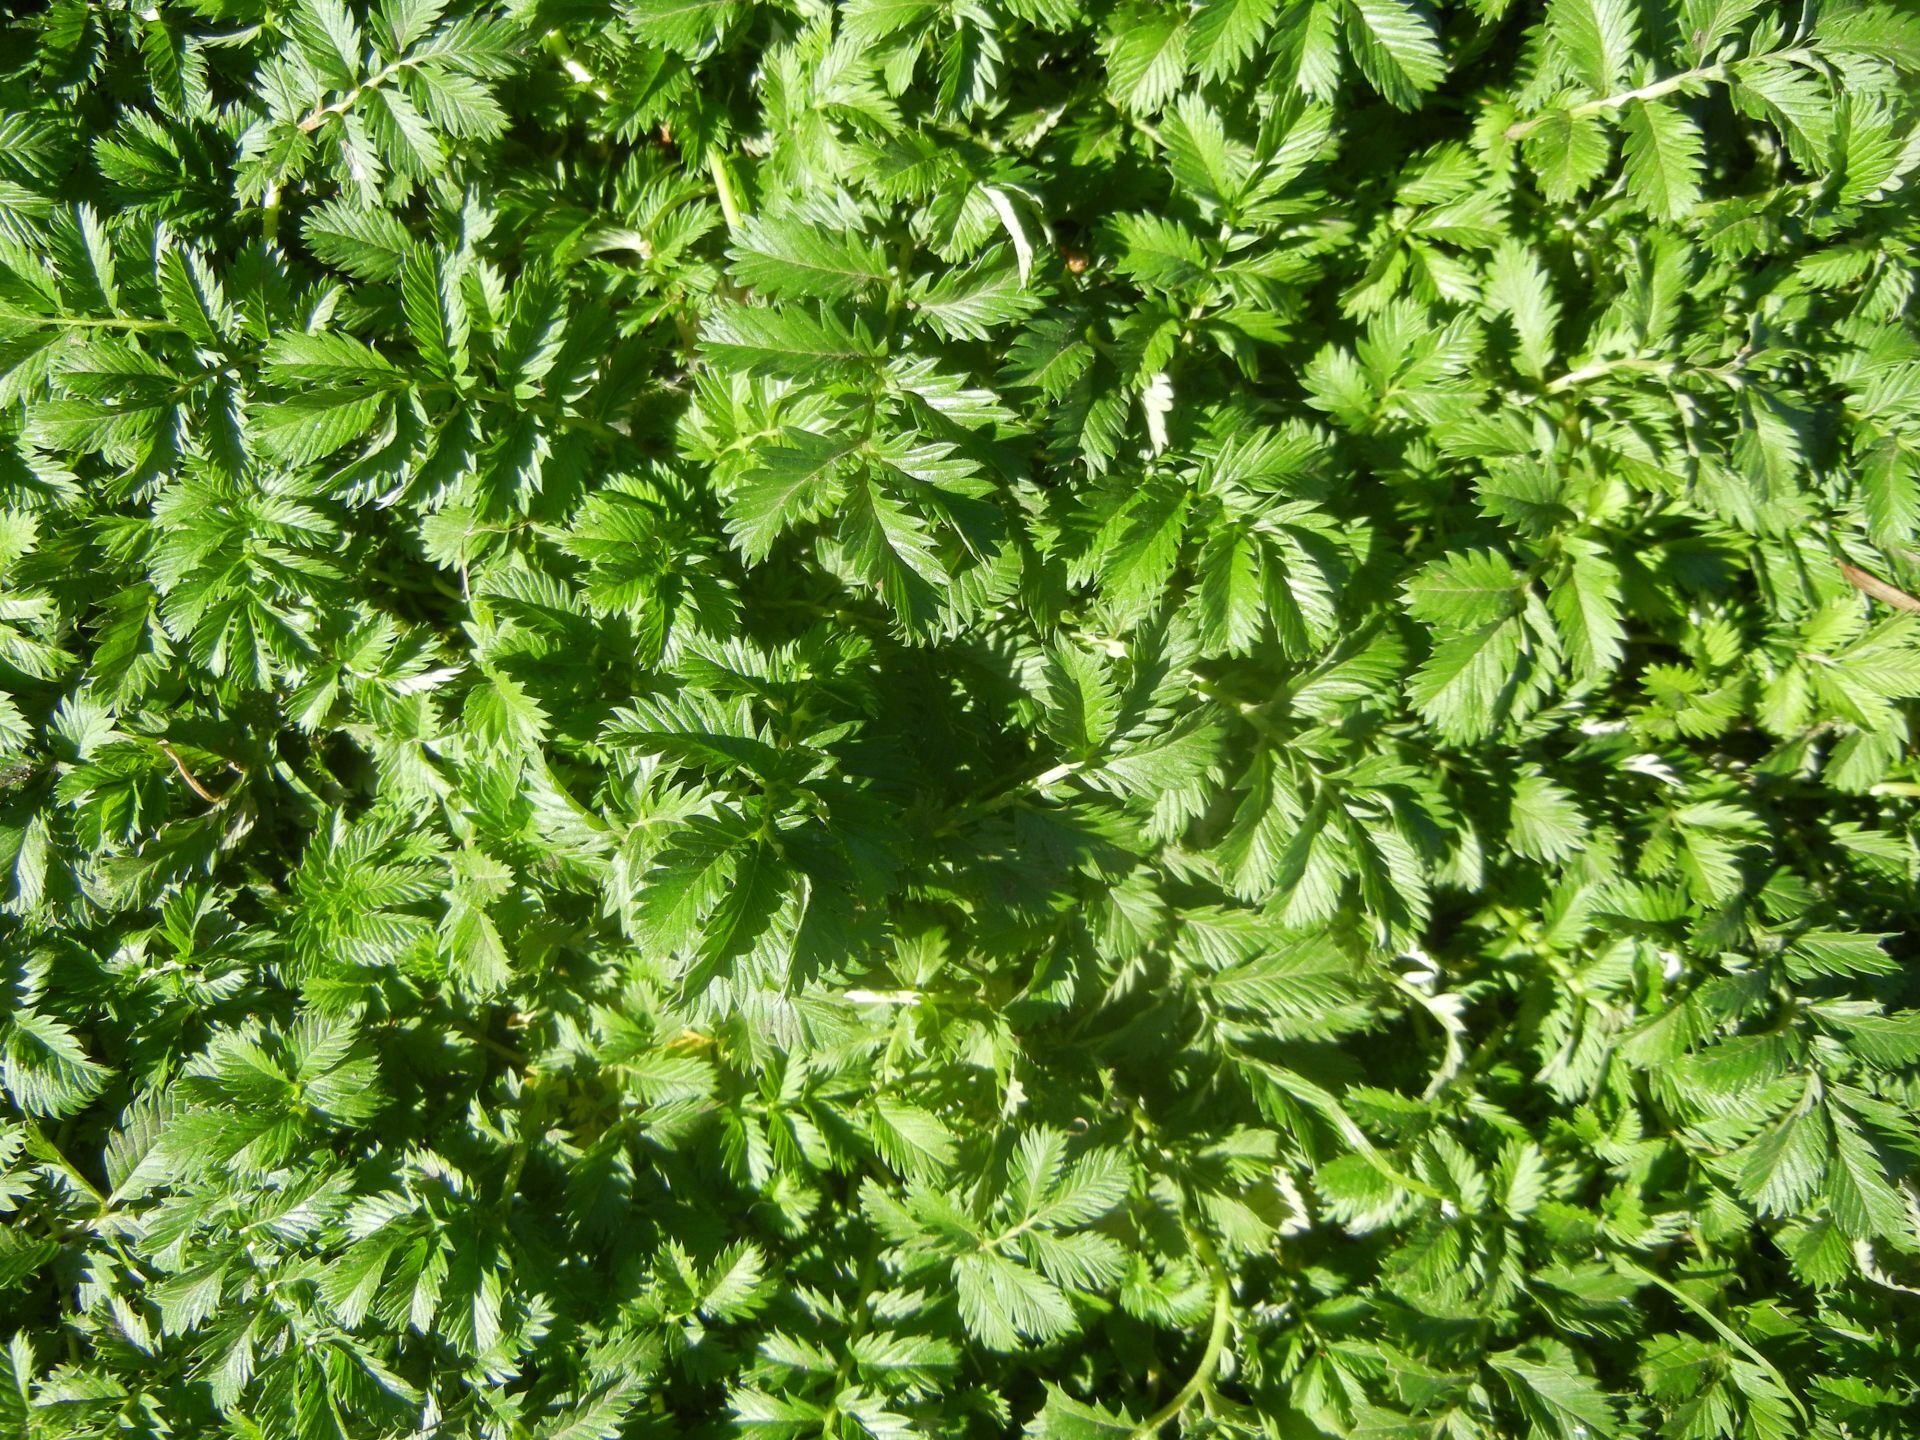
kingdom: Plantae
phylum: Tracheophyta
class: Magnoliopsida
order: Rosales
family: Rosaceae
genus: Argentina
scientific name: Argentina anserina
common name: Common silverweed
